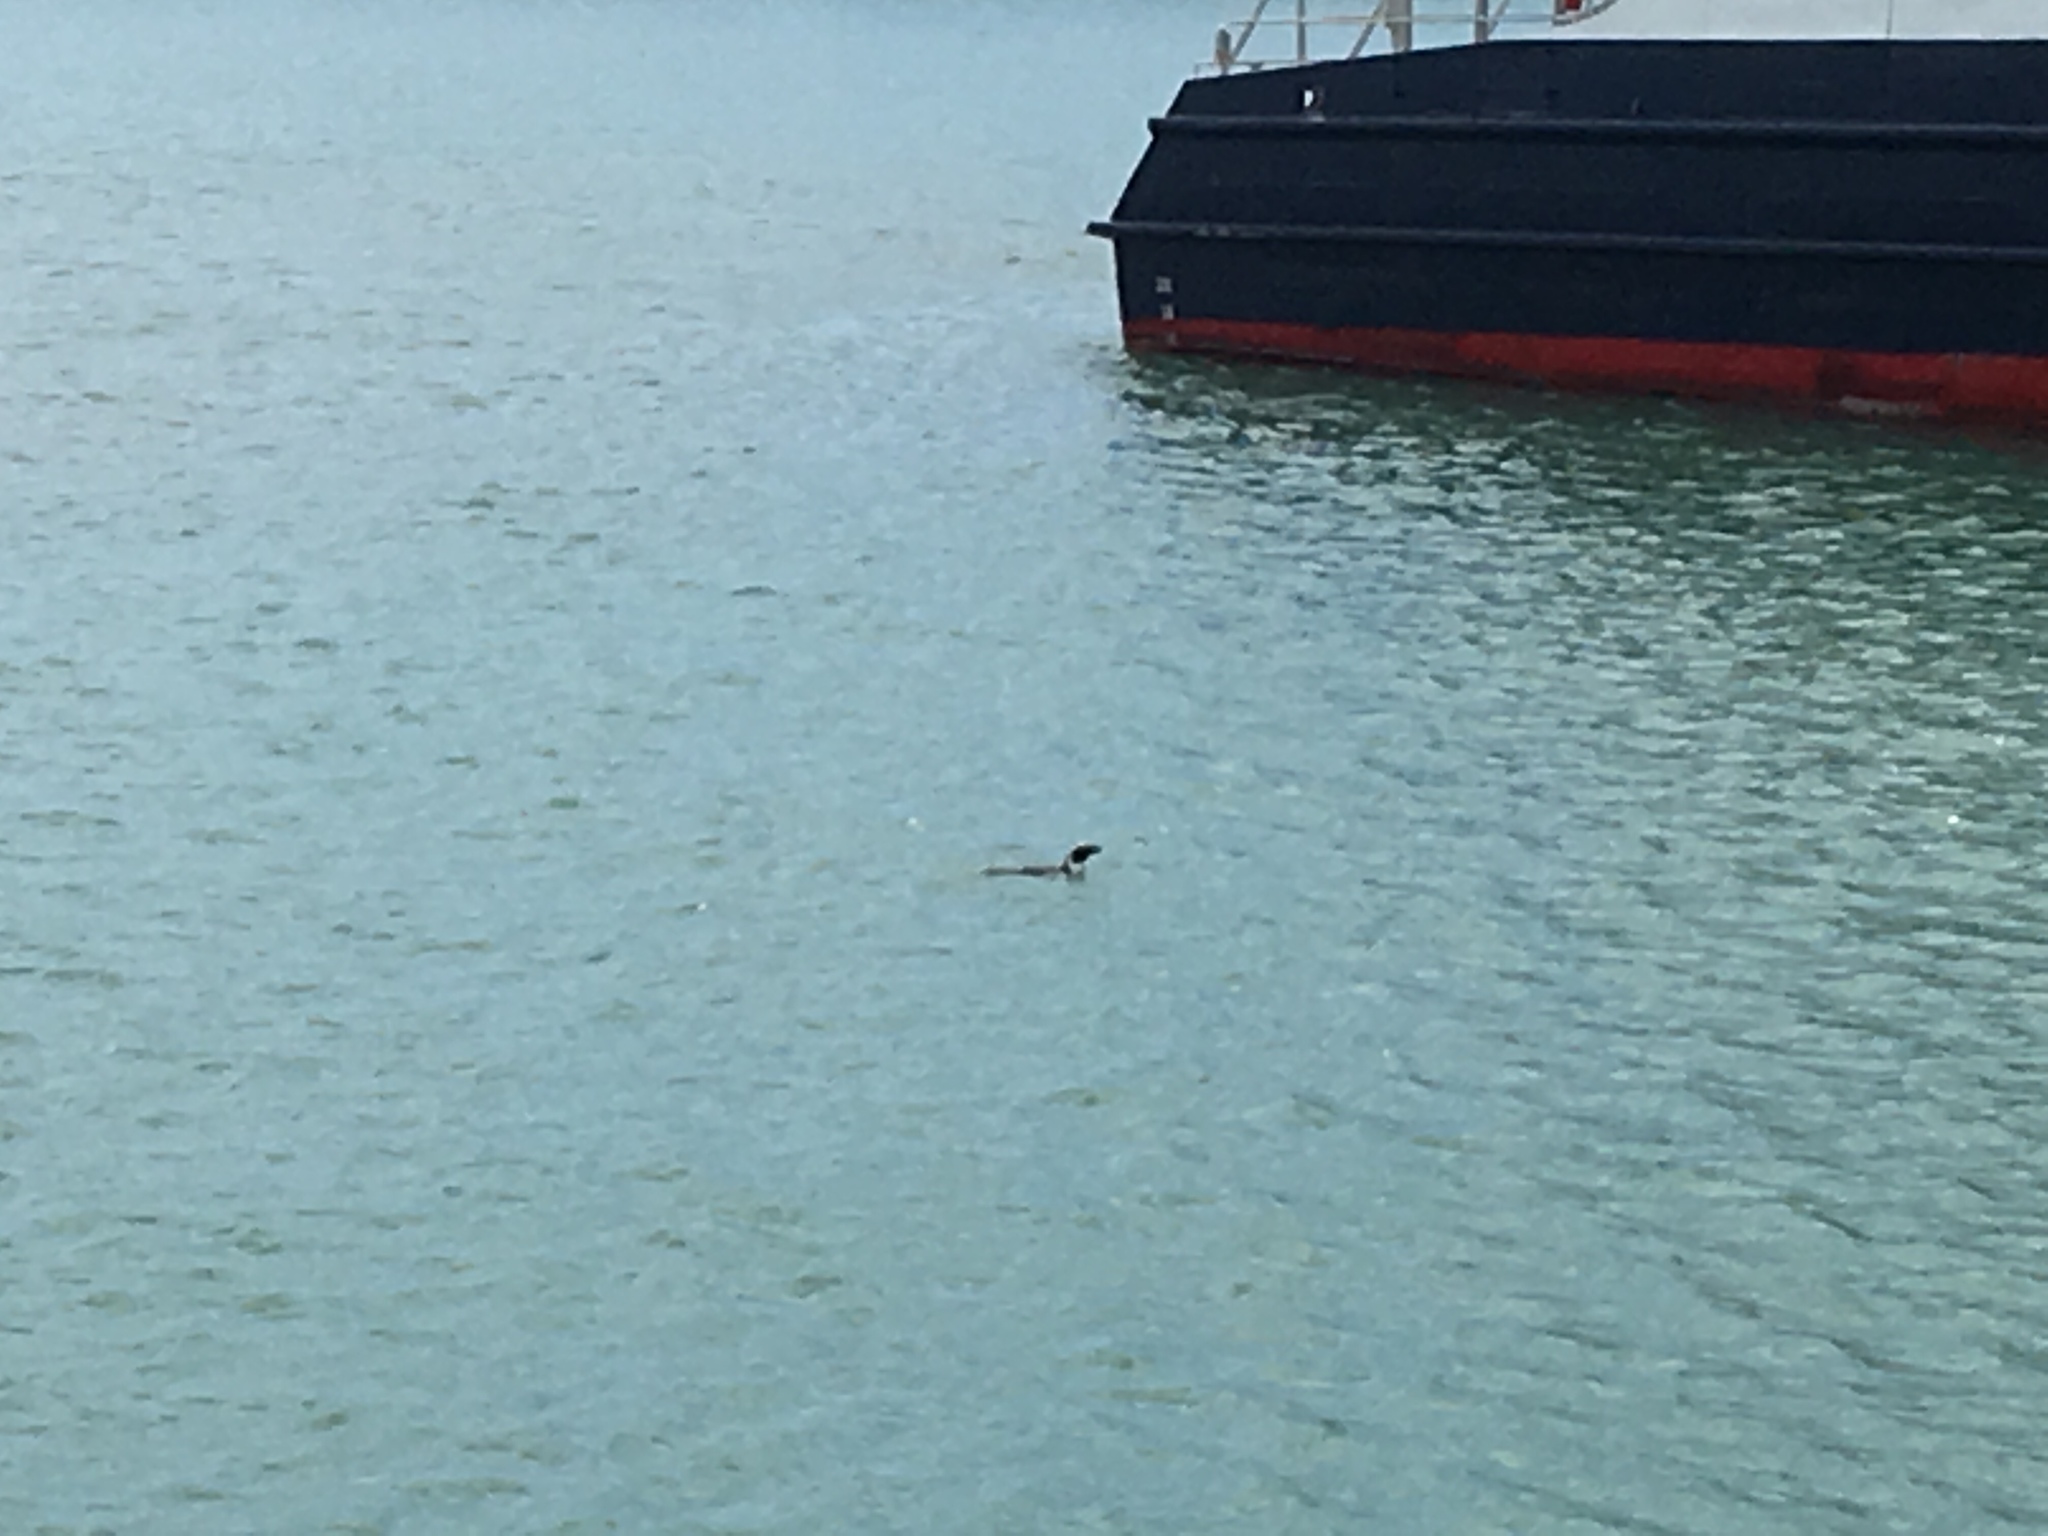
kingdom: Animalia
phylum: Chordata
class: Aves
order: Sphenisciformes
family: Spheniscidae
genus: Spheniscus
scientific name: Spheniscus demersus
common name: African penguin
